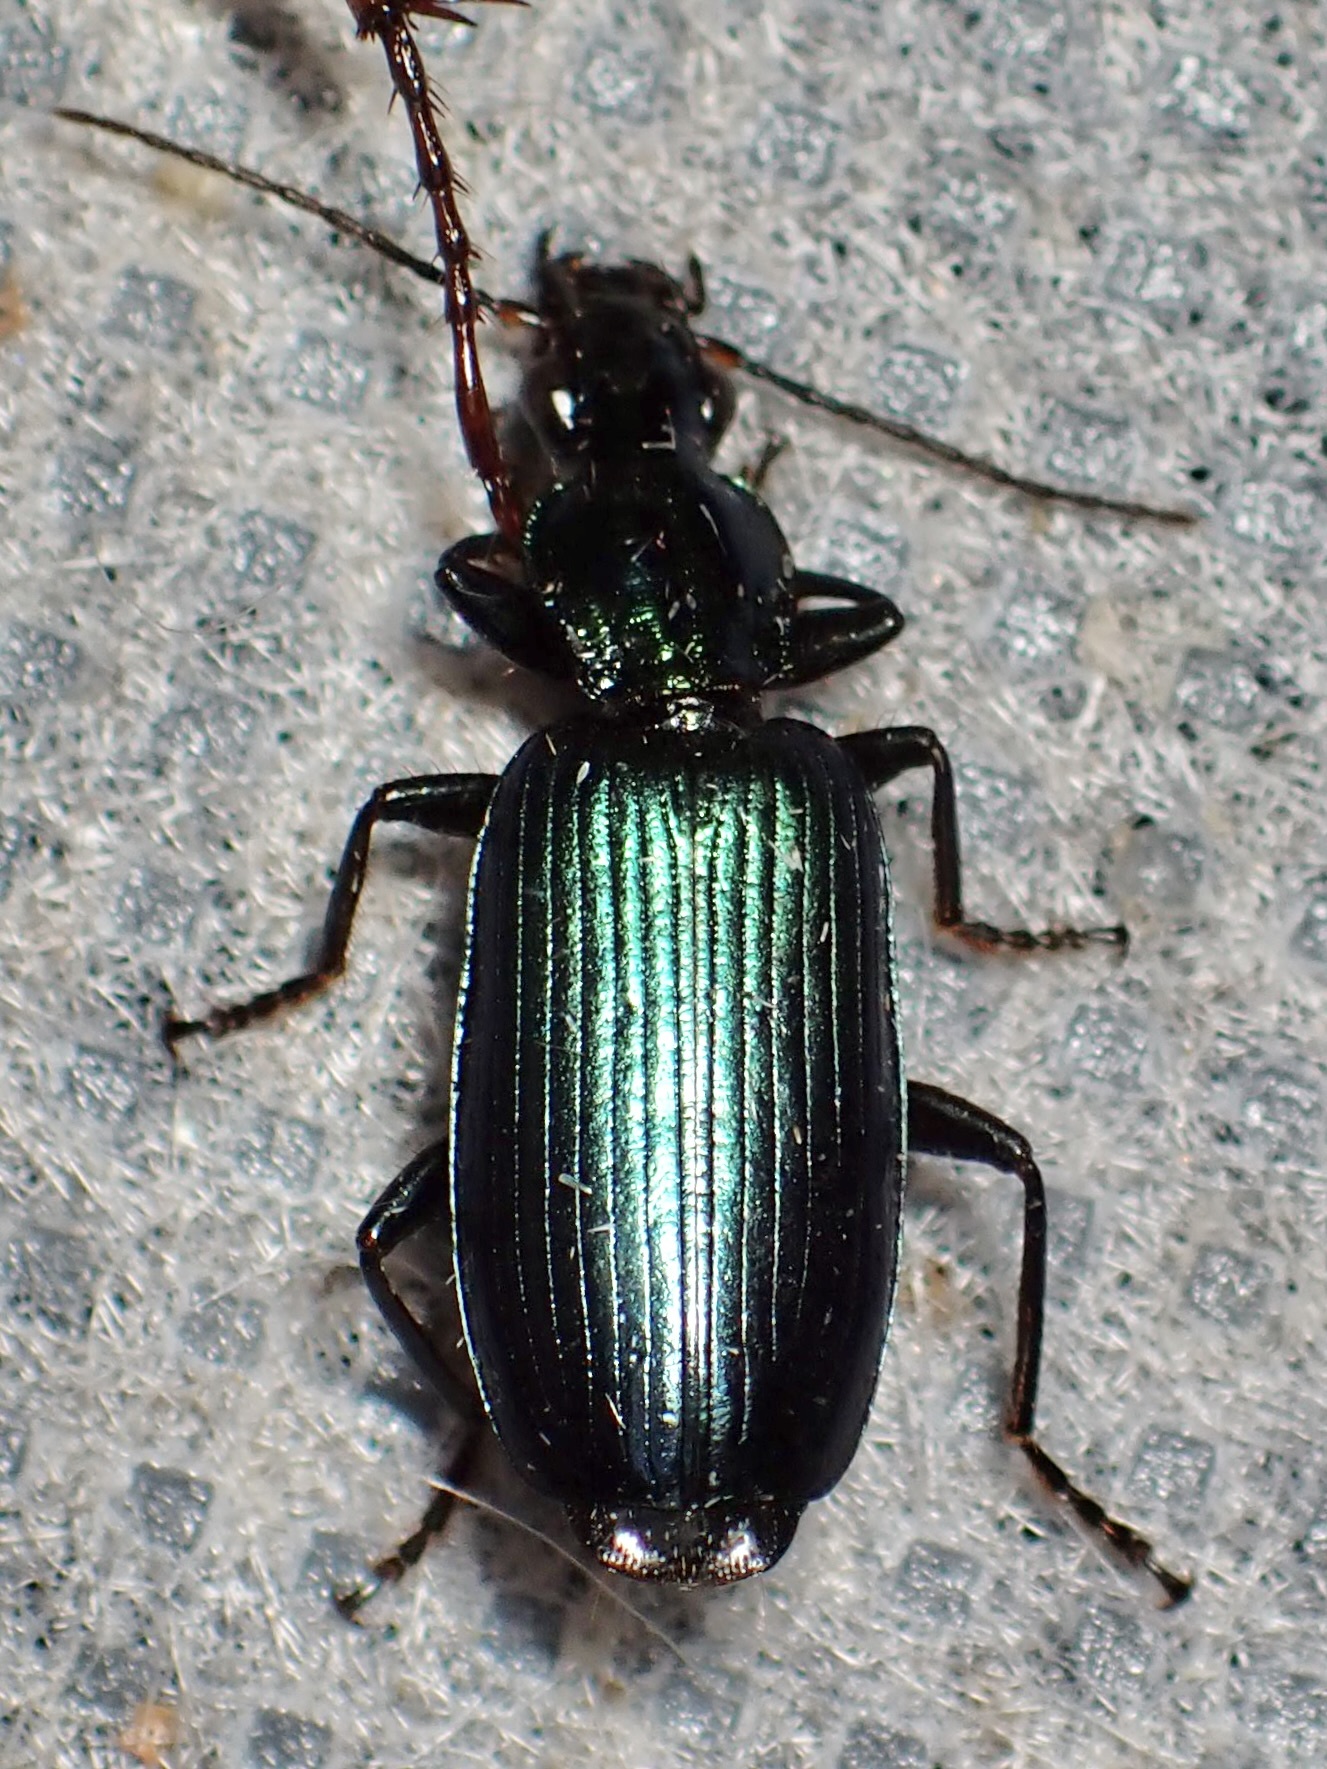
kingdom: Animalia
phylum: Arthropoda
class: Insecta
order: Coleoptera
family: Carabidae
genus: Calleida
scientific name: Calleida punctulata
